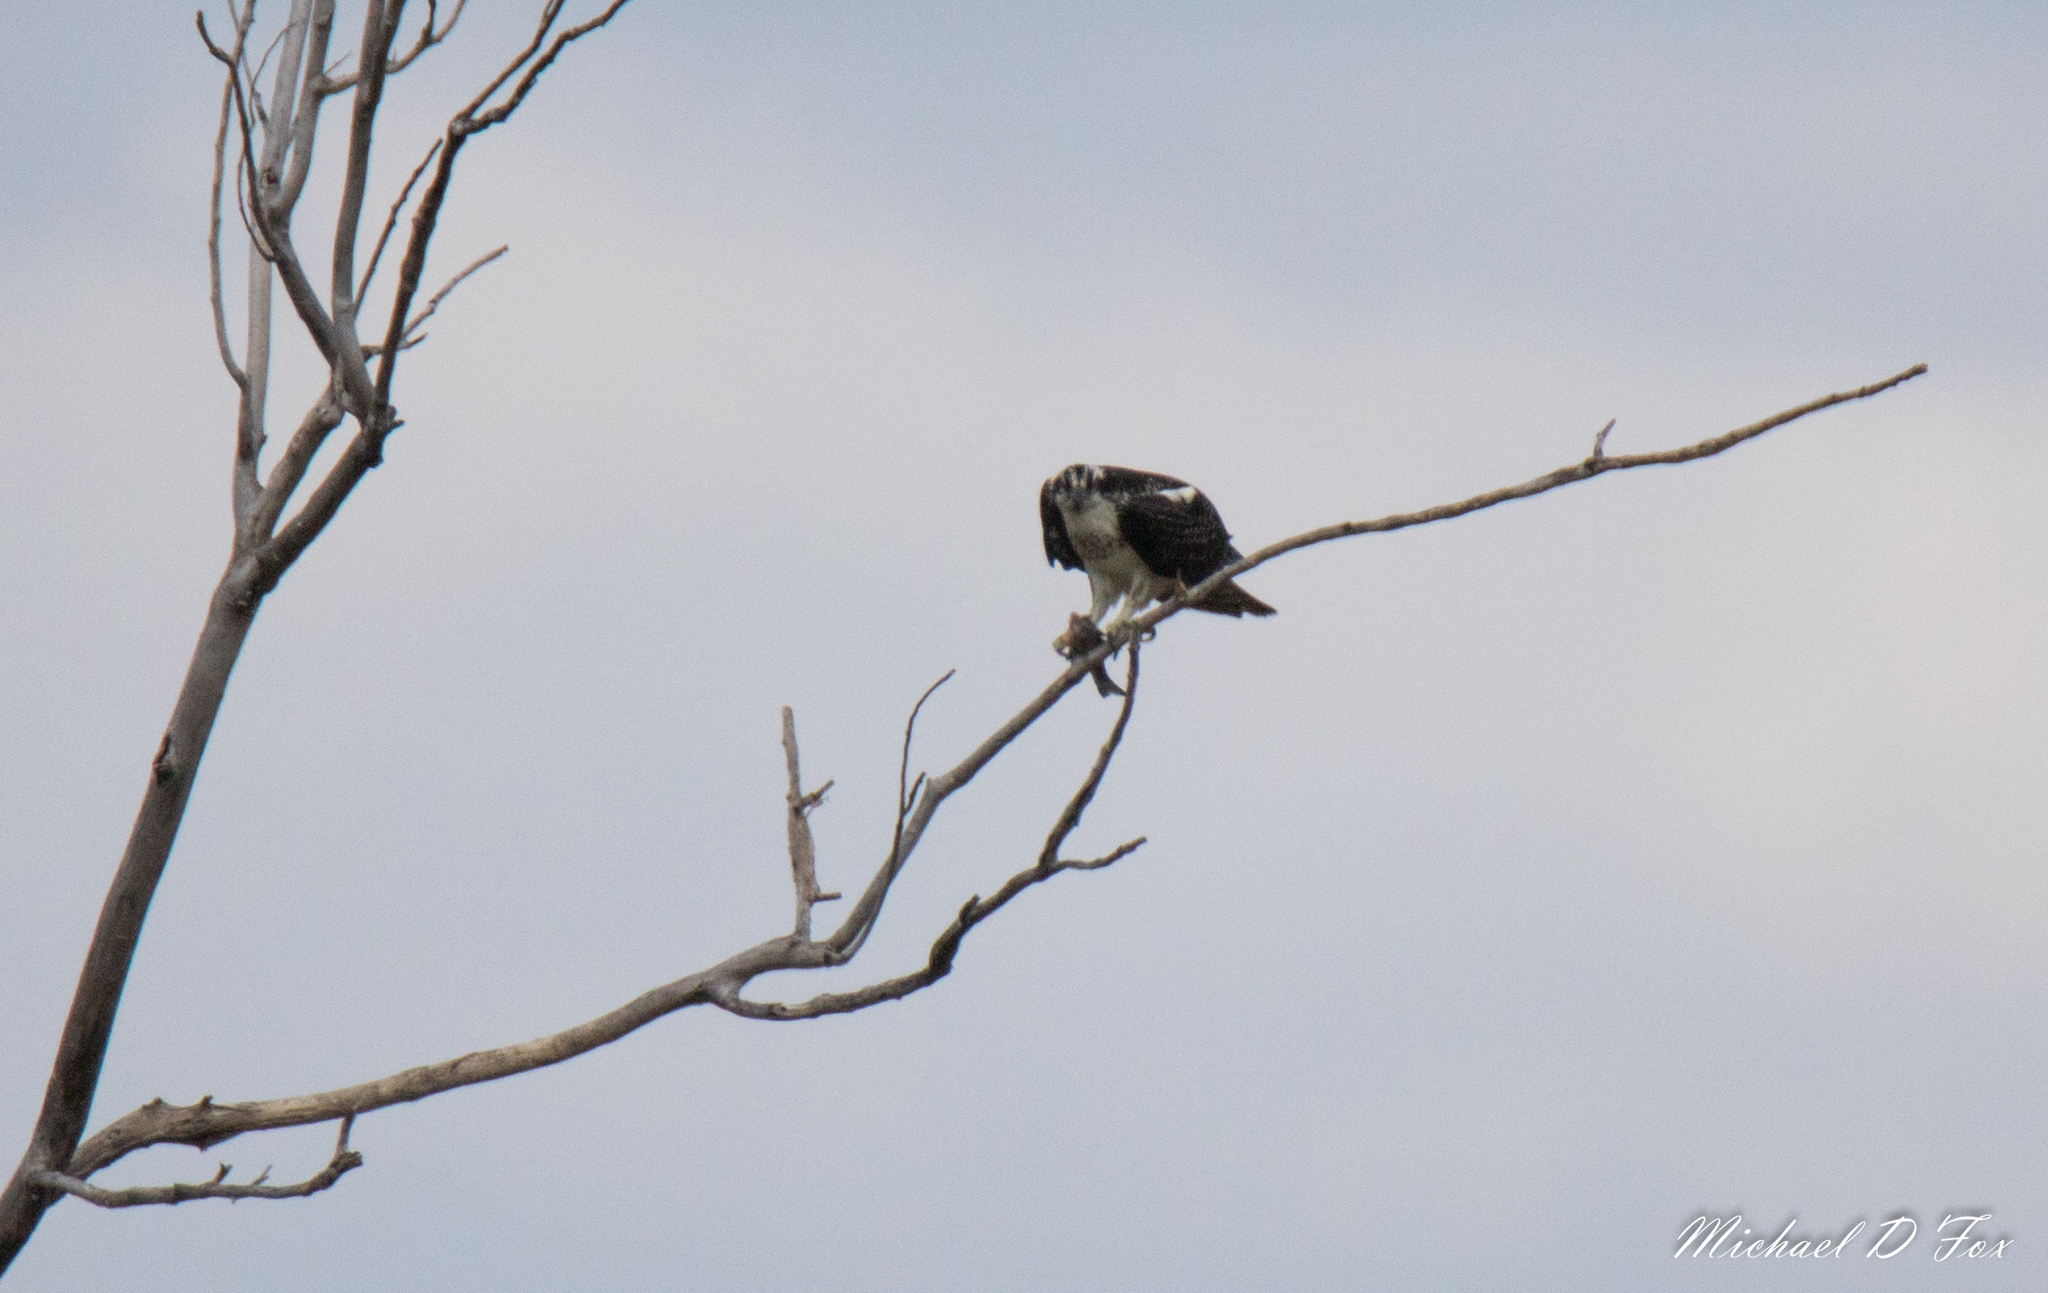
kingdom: Animalia
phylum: Chordata
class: Aves
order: Accipitriformes
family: Pandionidae
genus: Pandion
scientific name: Pandion haliaetus
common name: Osprey
